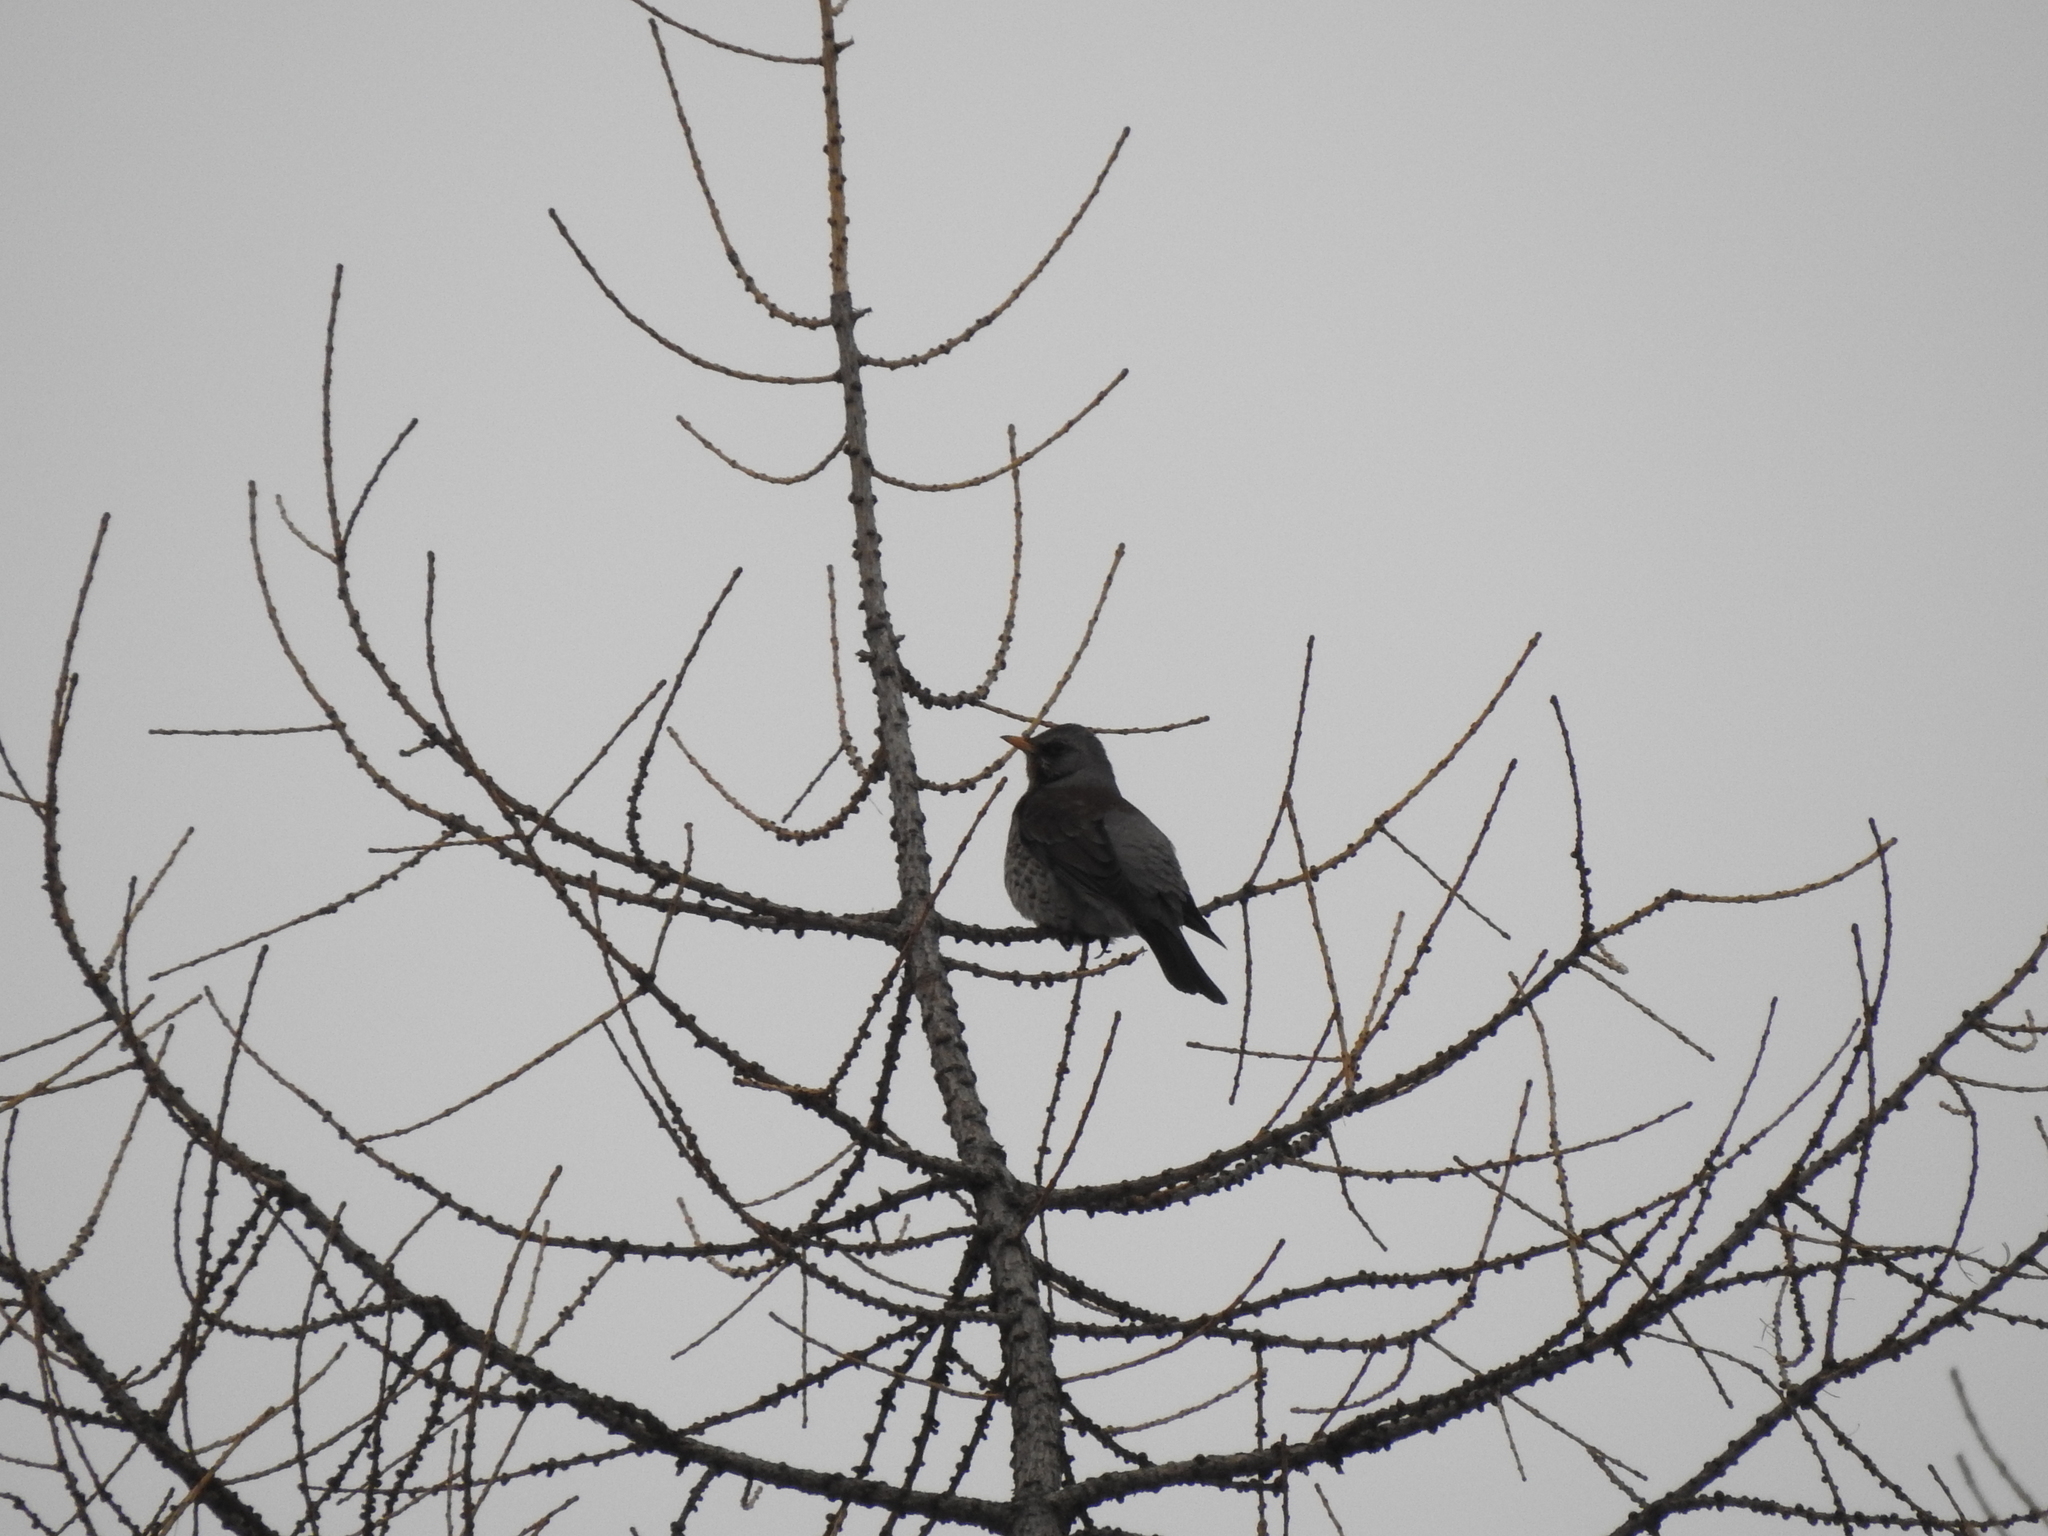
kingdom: Animalia
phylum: Chordata
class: Aves
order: Passeriformes
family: Turdidae
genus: Turdus
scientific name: Turdus pilaris
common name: Fieldfare
